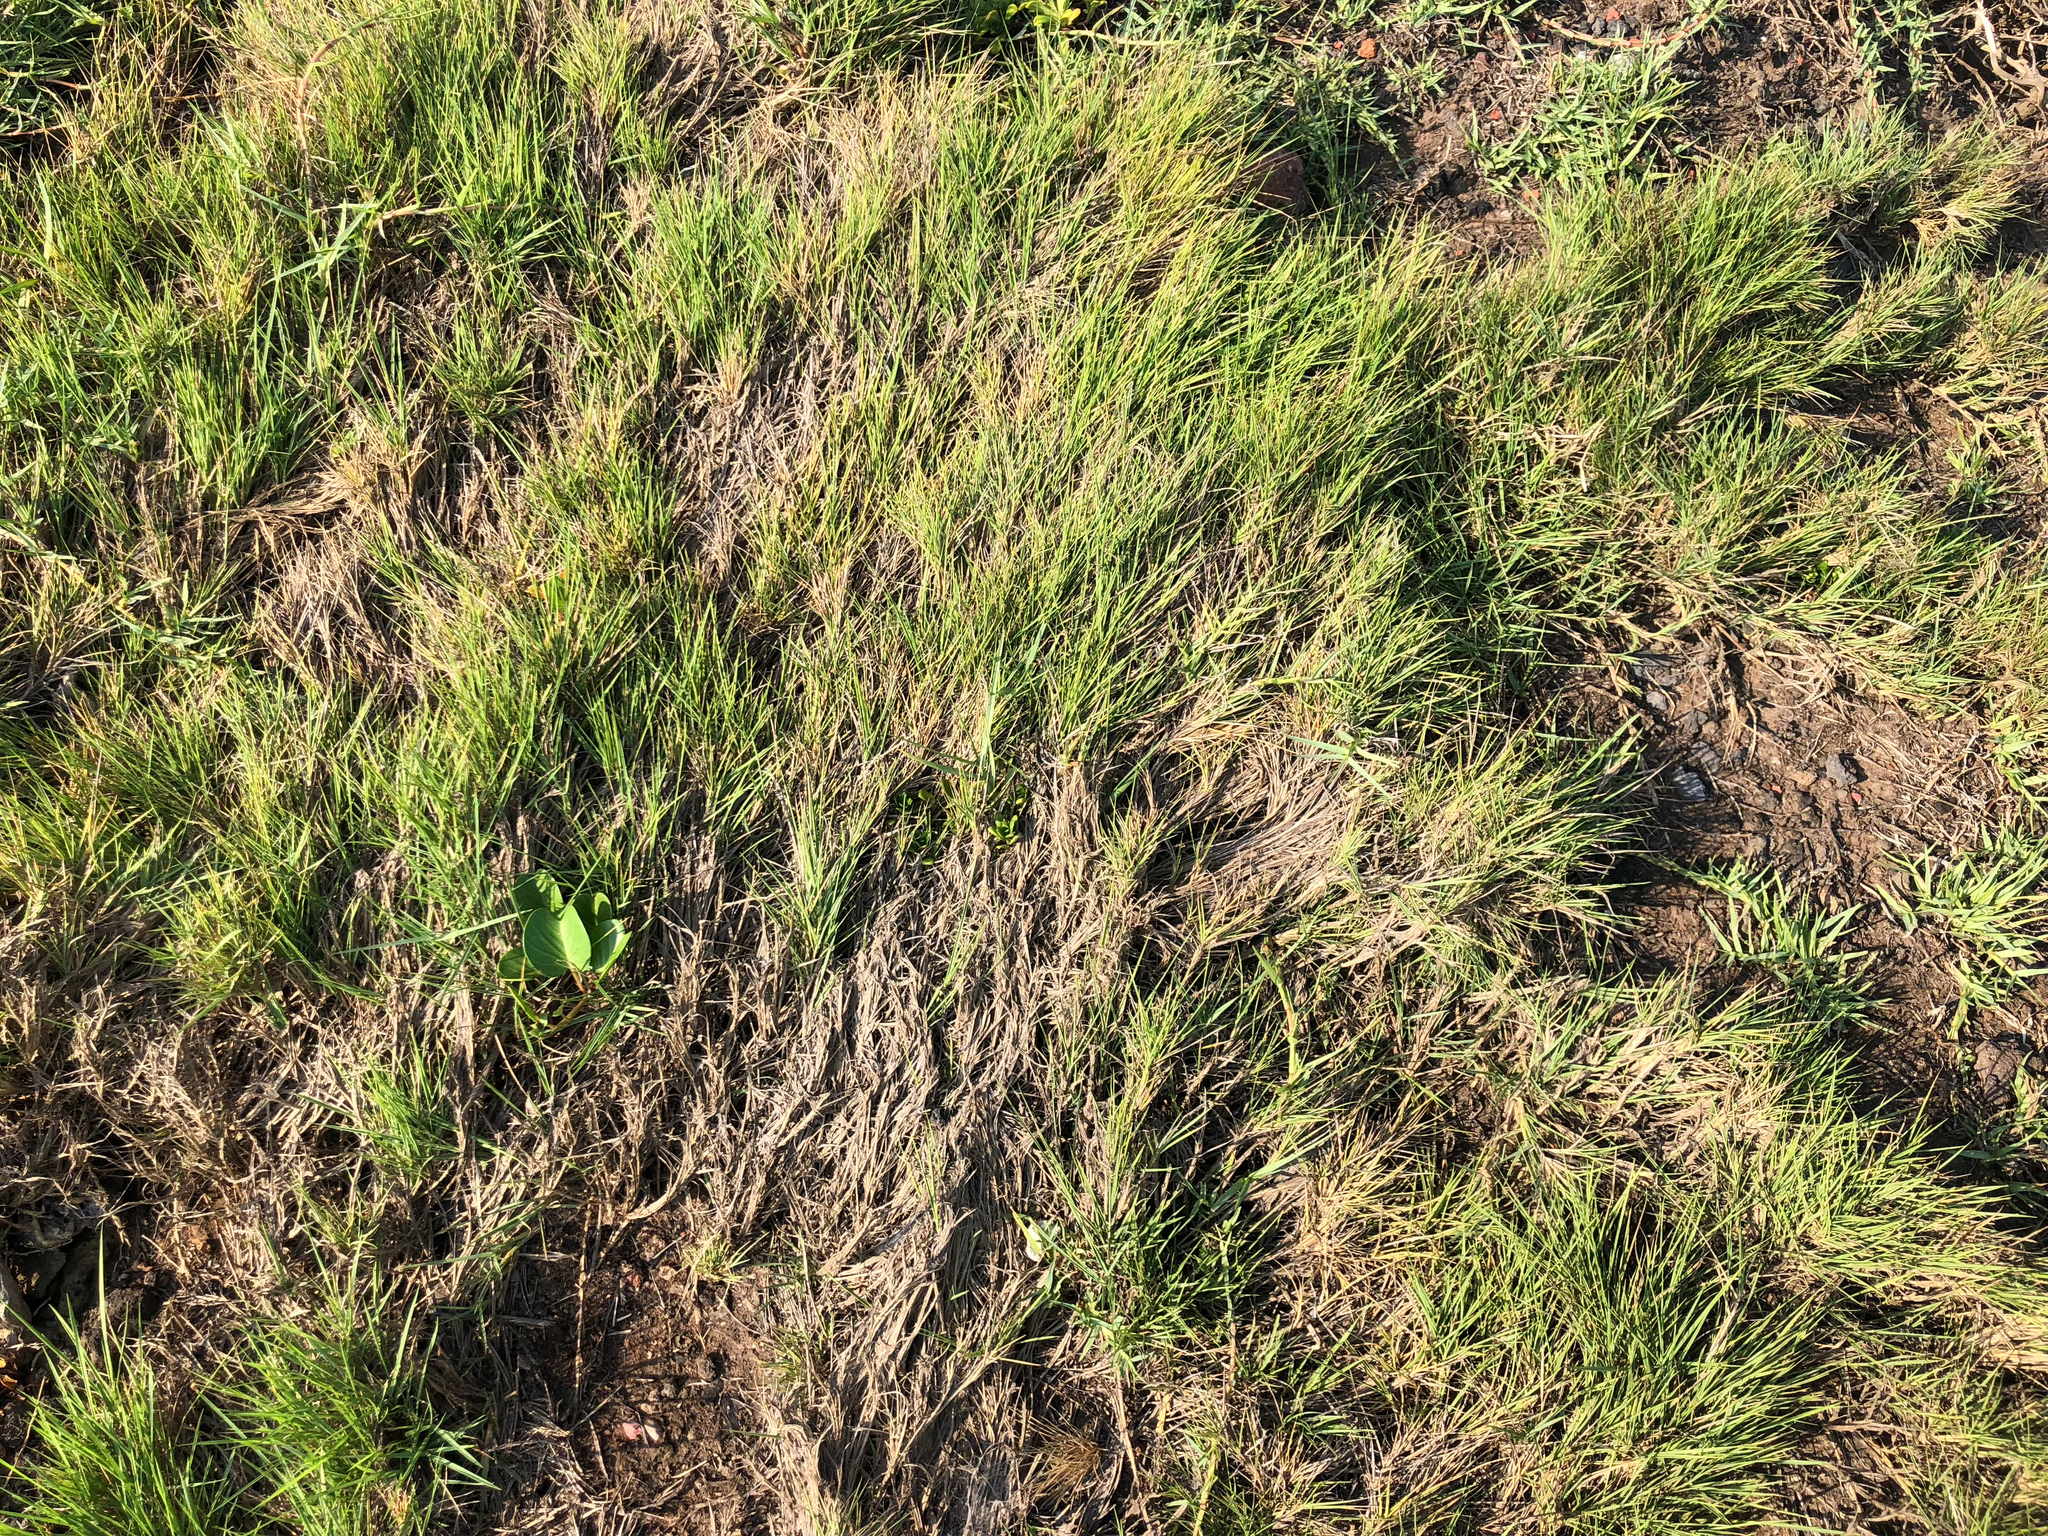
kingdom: Plantae
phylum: Tracheophyta
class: Liliopsida
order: Poales
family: Poaceae
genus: Zoysia
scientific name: Zoysia sinica
